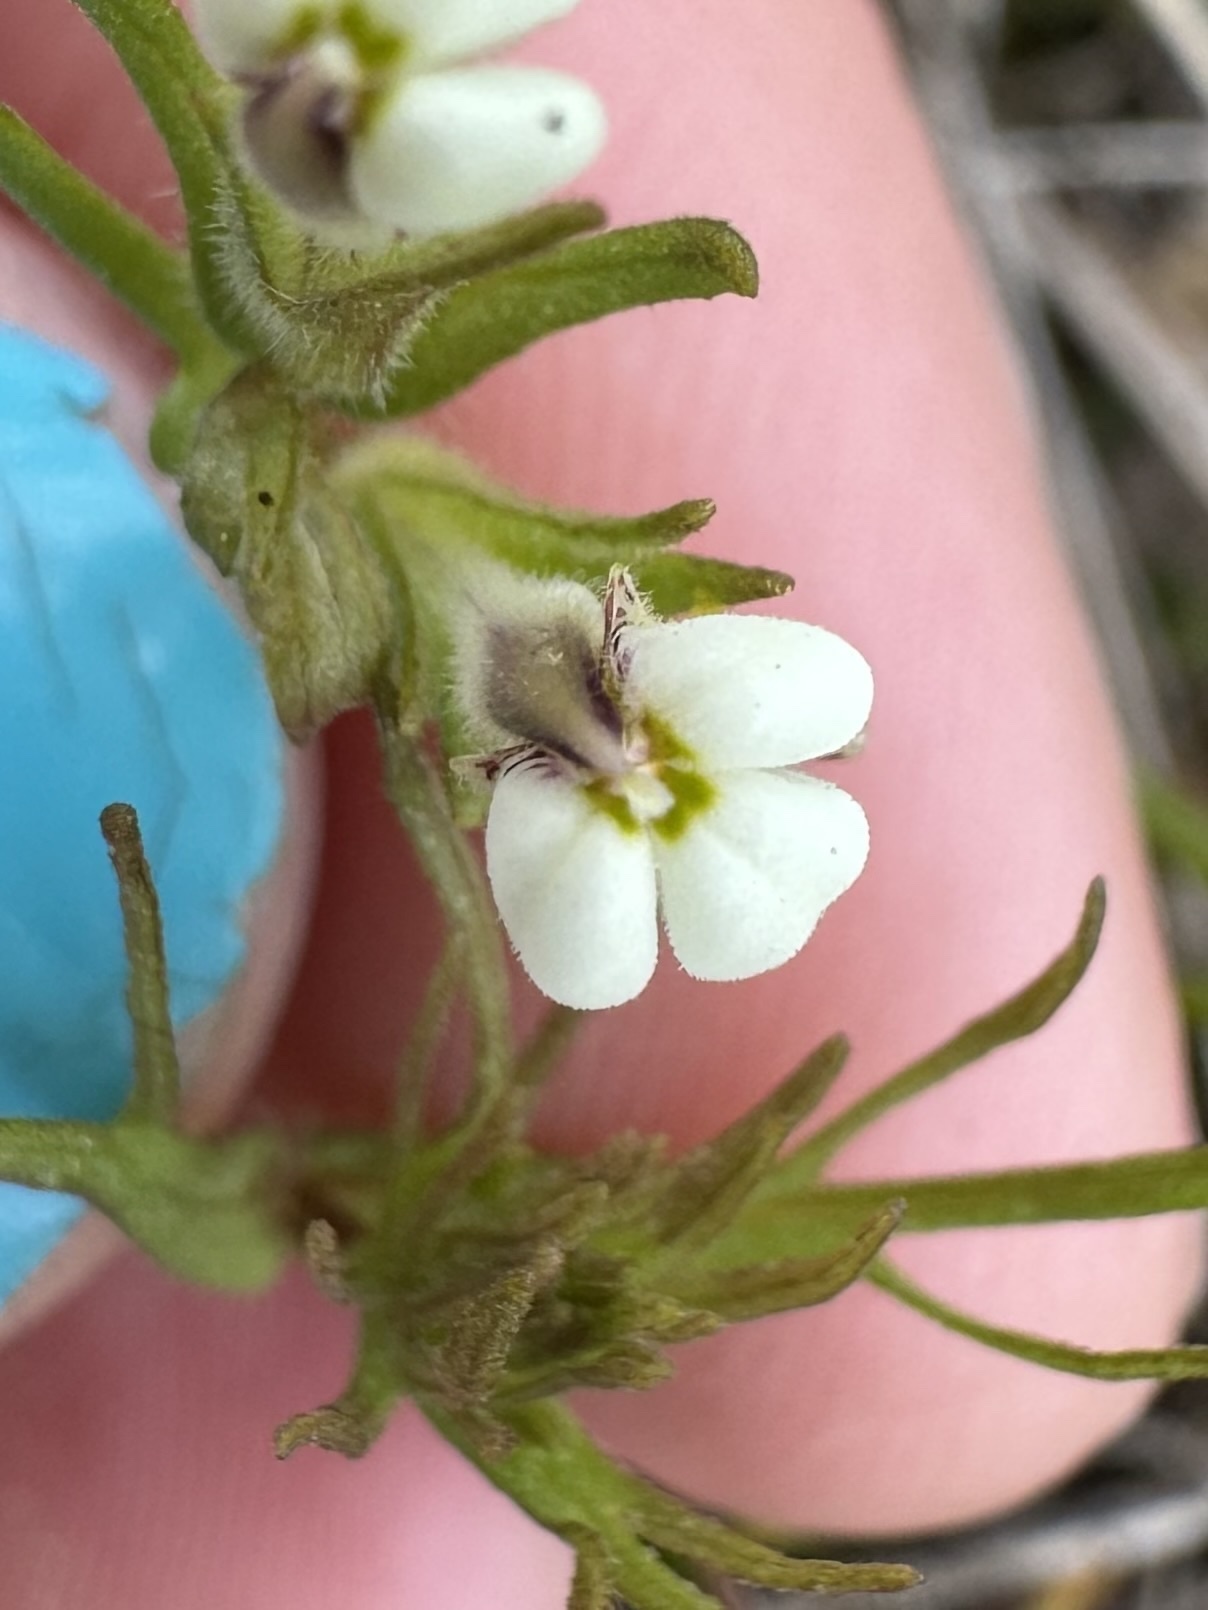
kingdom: Plantae
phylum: Tracheophyta
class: Magnoliopsida
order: Lamiales
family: Orobanchaceae
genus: Triphysaria
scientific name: Triphysaria versicolor
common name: Bearded false owl-clover
